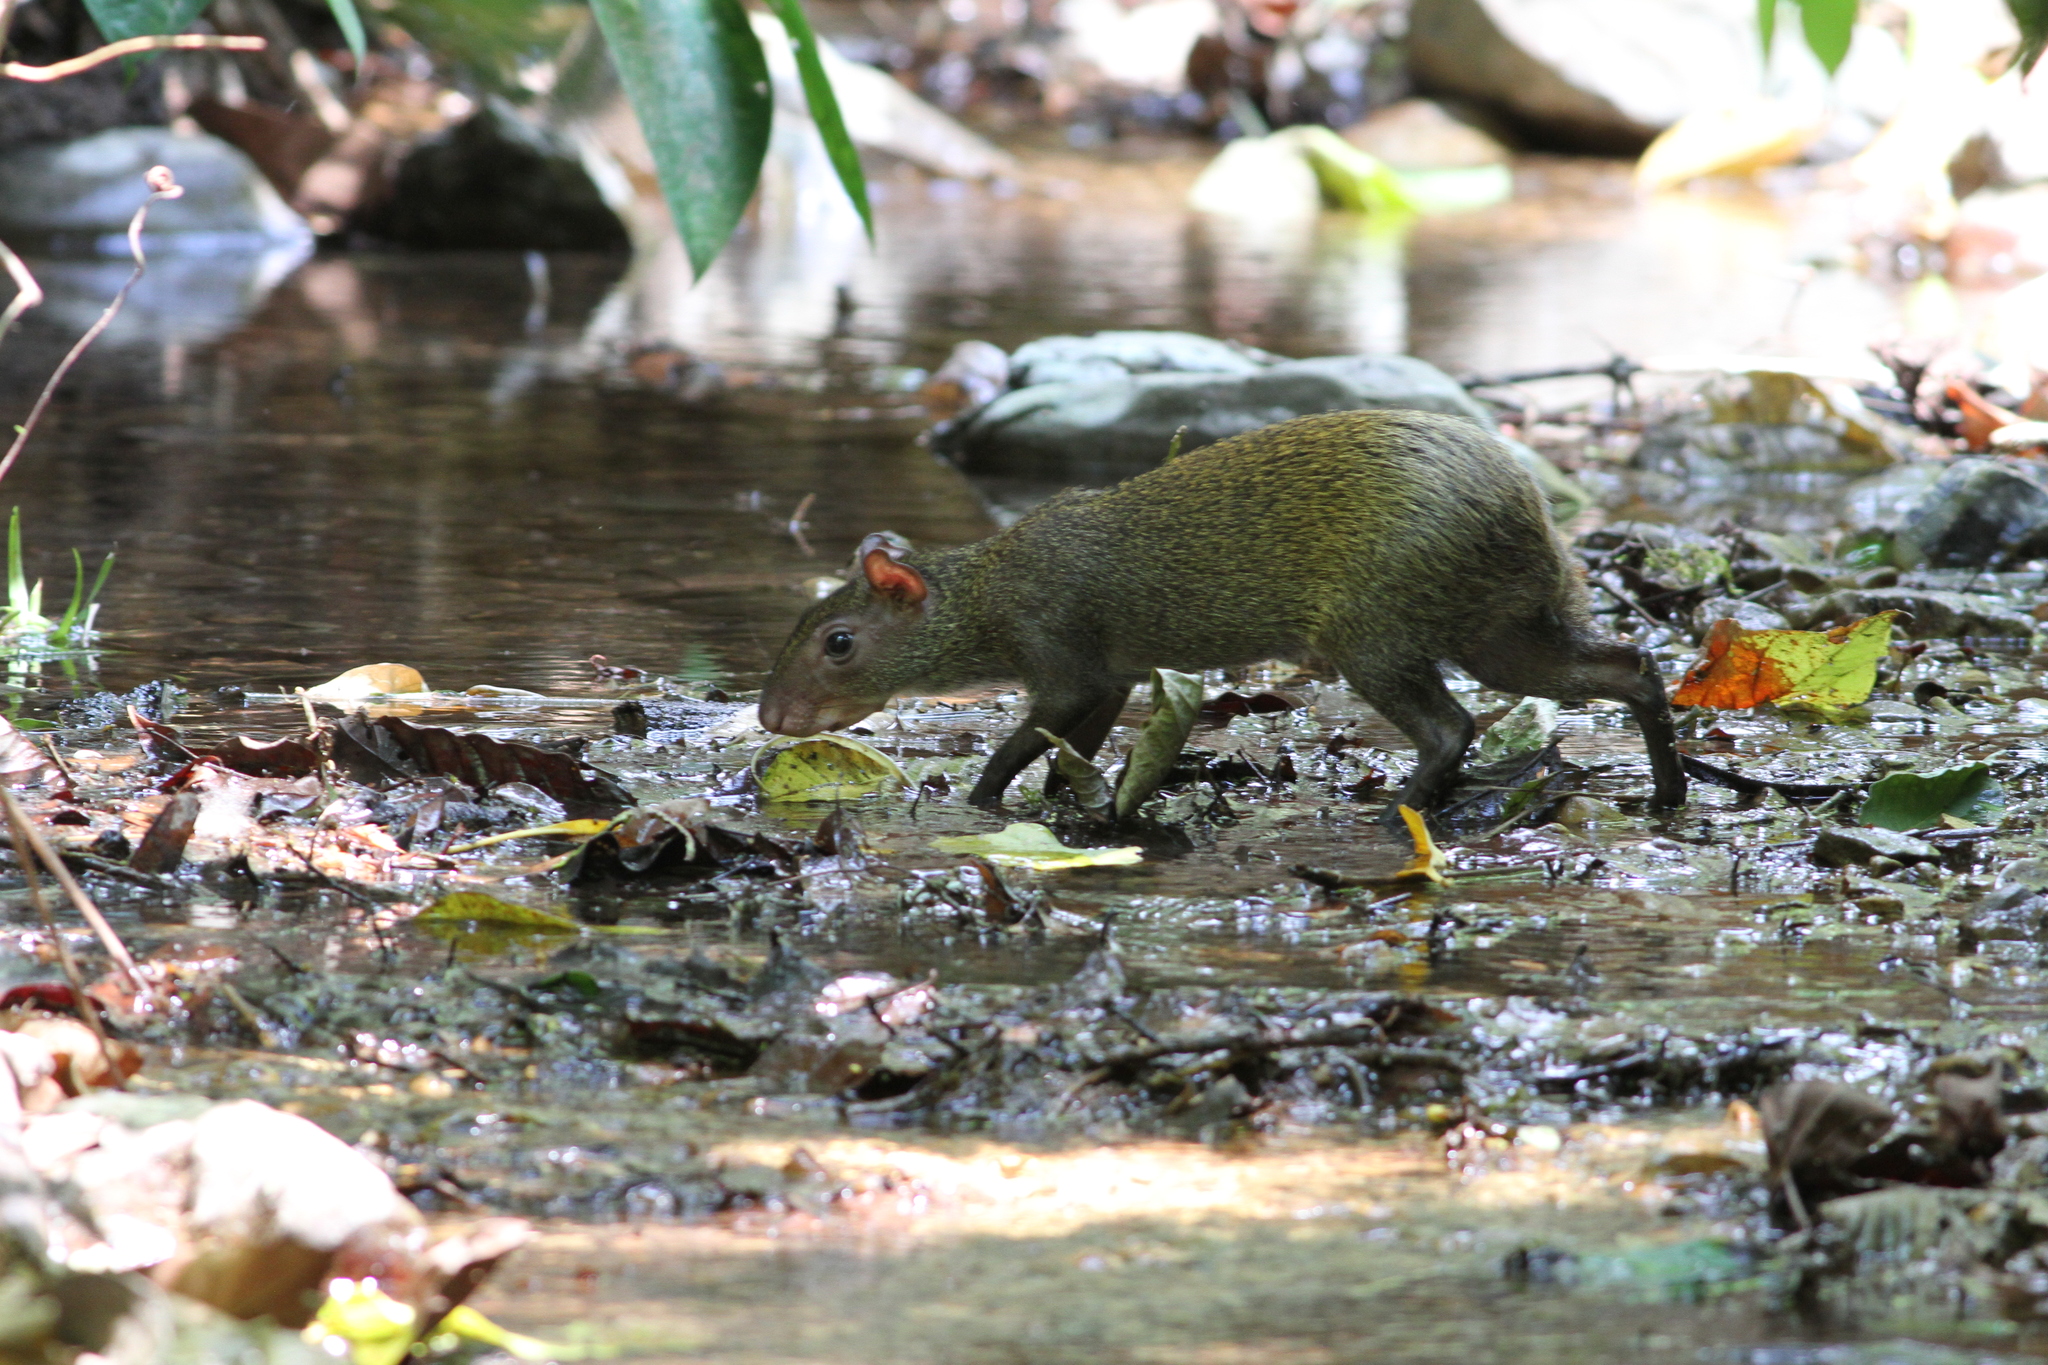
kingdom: Animalia
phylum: Chordata
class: Mammalia
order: Rodentia
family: Dasyproctidae
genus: Dasyprocta
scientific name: Dasyprocta punctata
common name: Central american agouti
